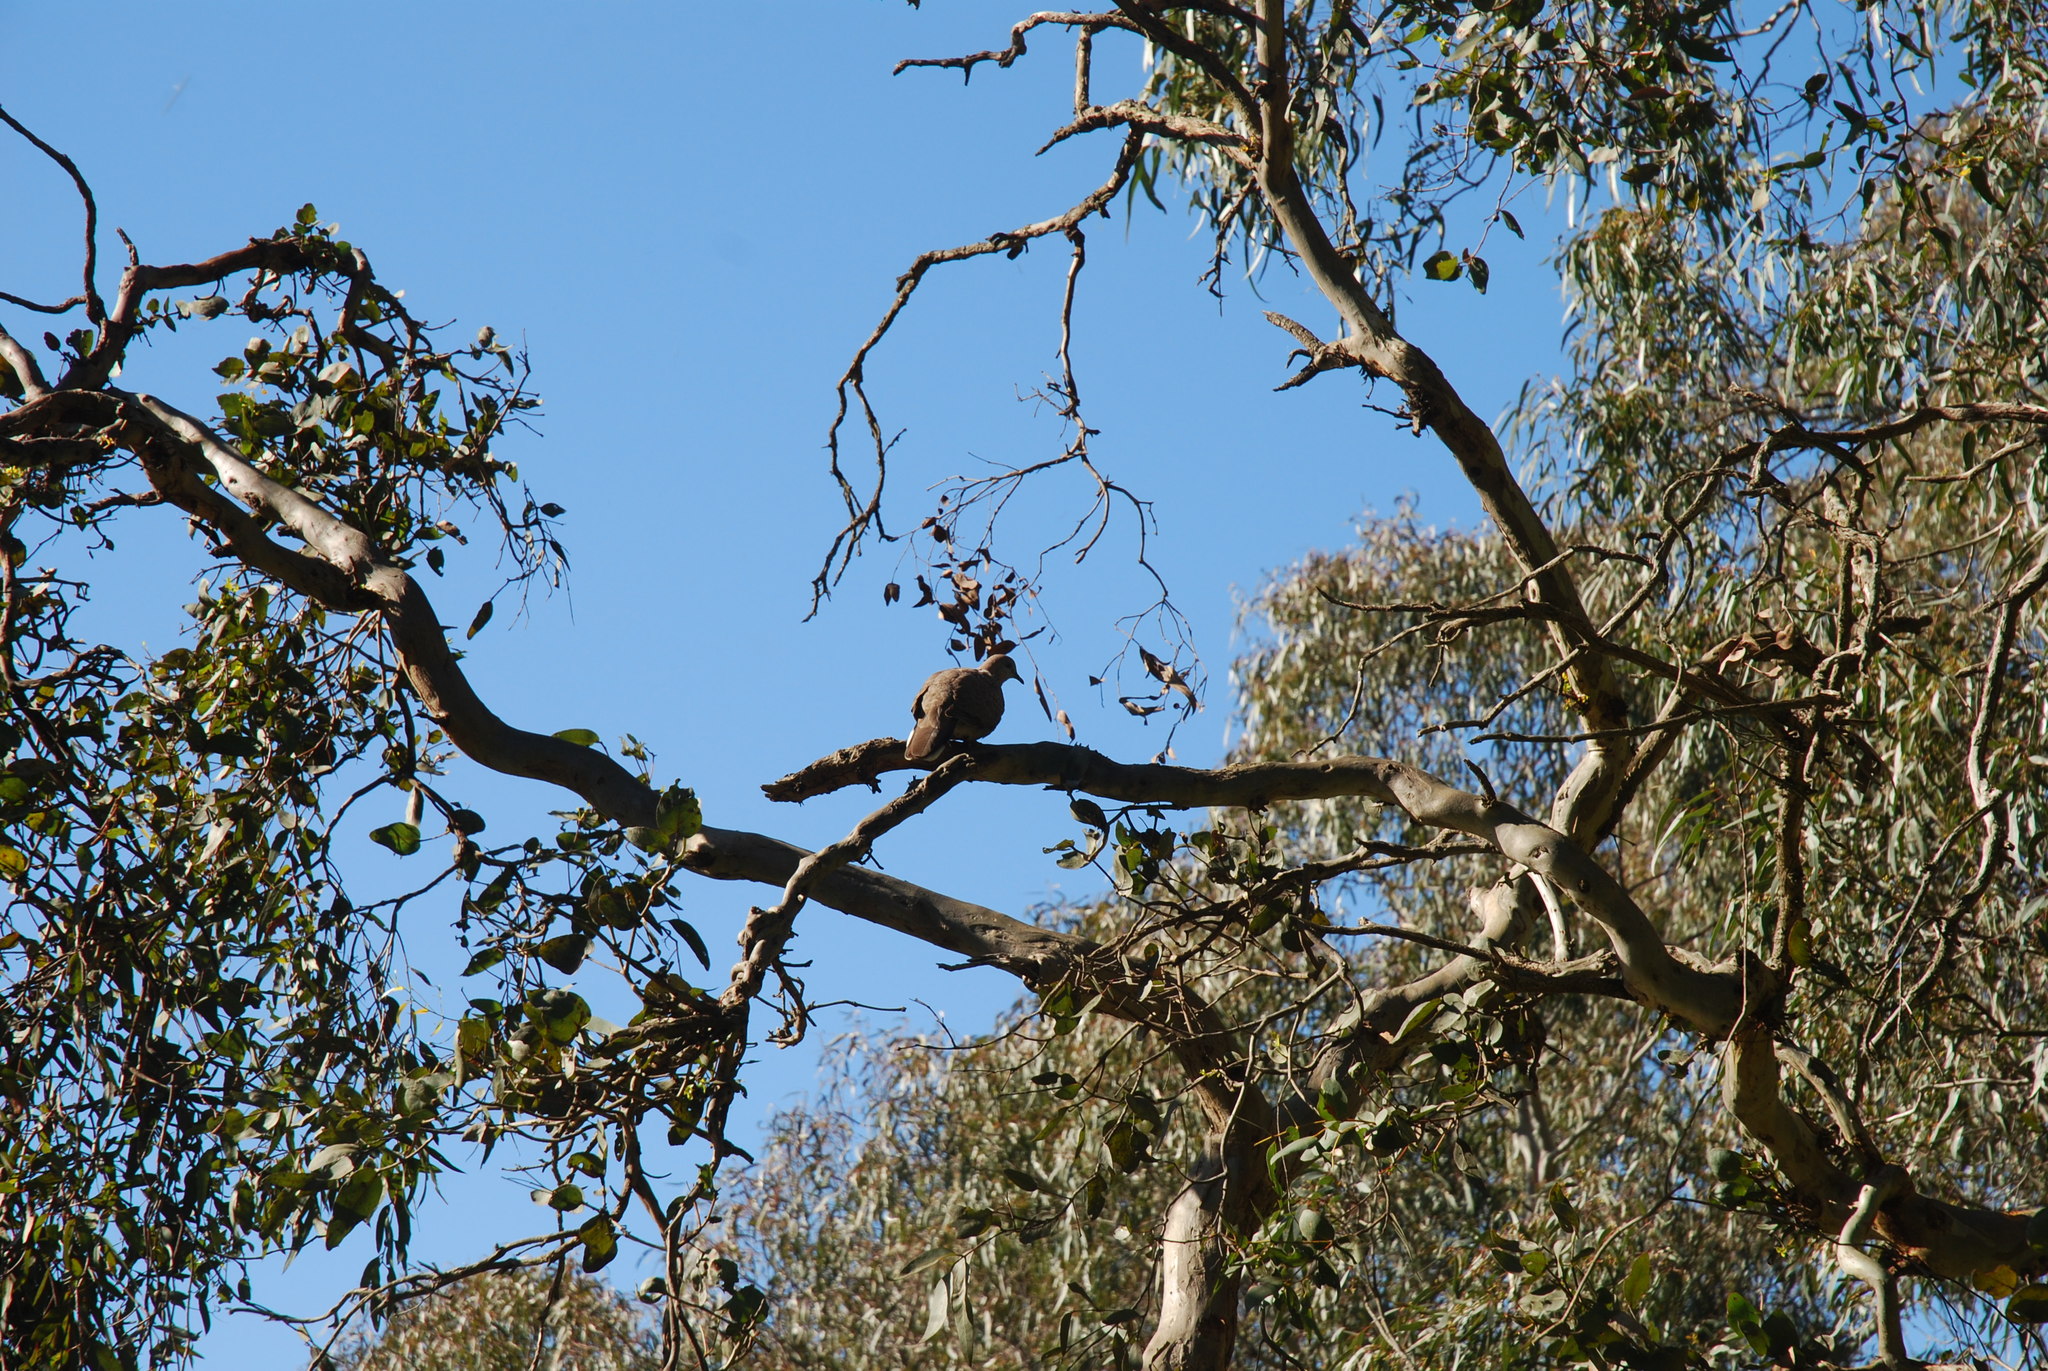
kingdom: Animalia
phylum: Chordata
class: Aves
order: Columbiformes
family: Columbidae
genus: Spilopelia
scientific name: Spilopelia chinensis
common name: Spotted dove
